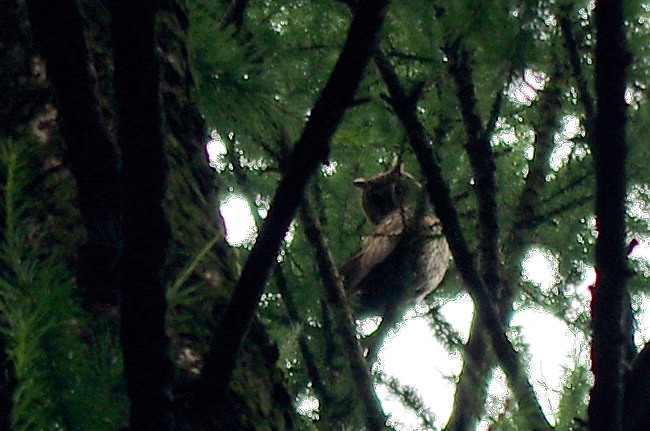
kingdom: Animalia
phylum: Chordata
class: Aves
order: Strigiformes
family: Strigidae
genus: Asio
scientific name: Asio otus
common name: Long-eared owl
